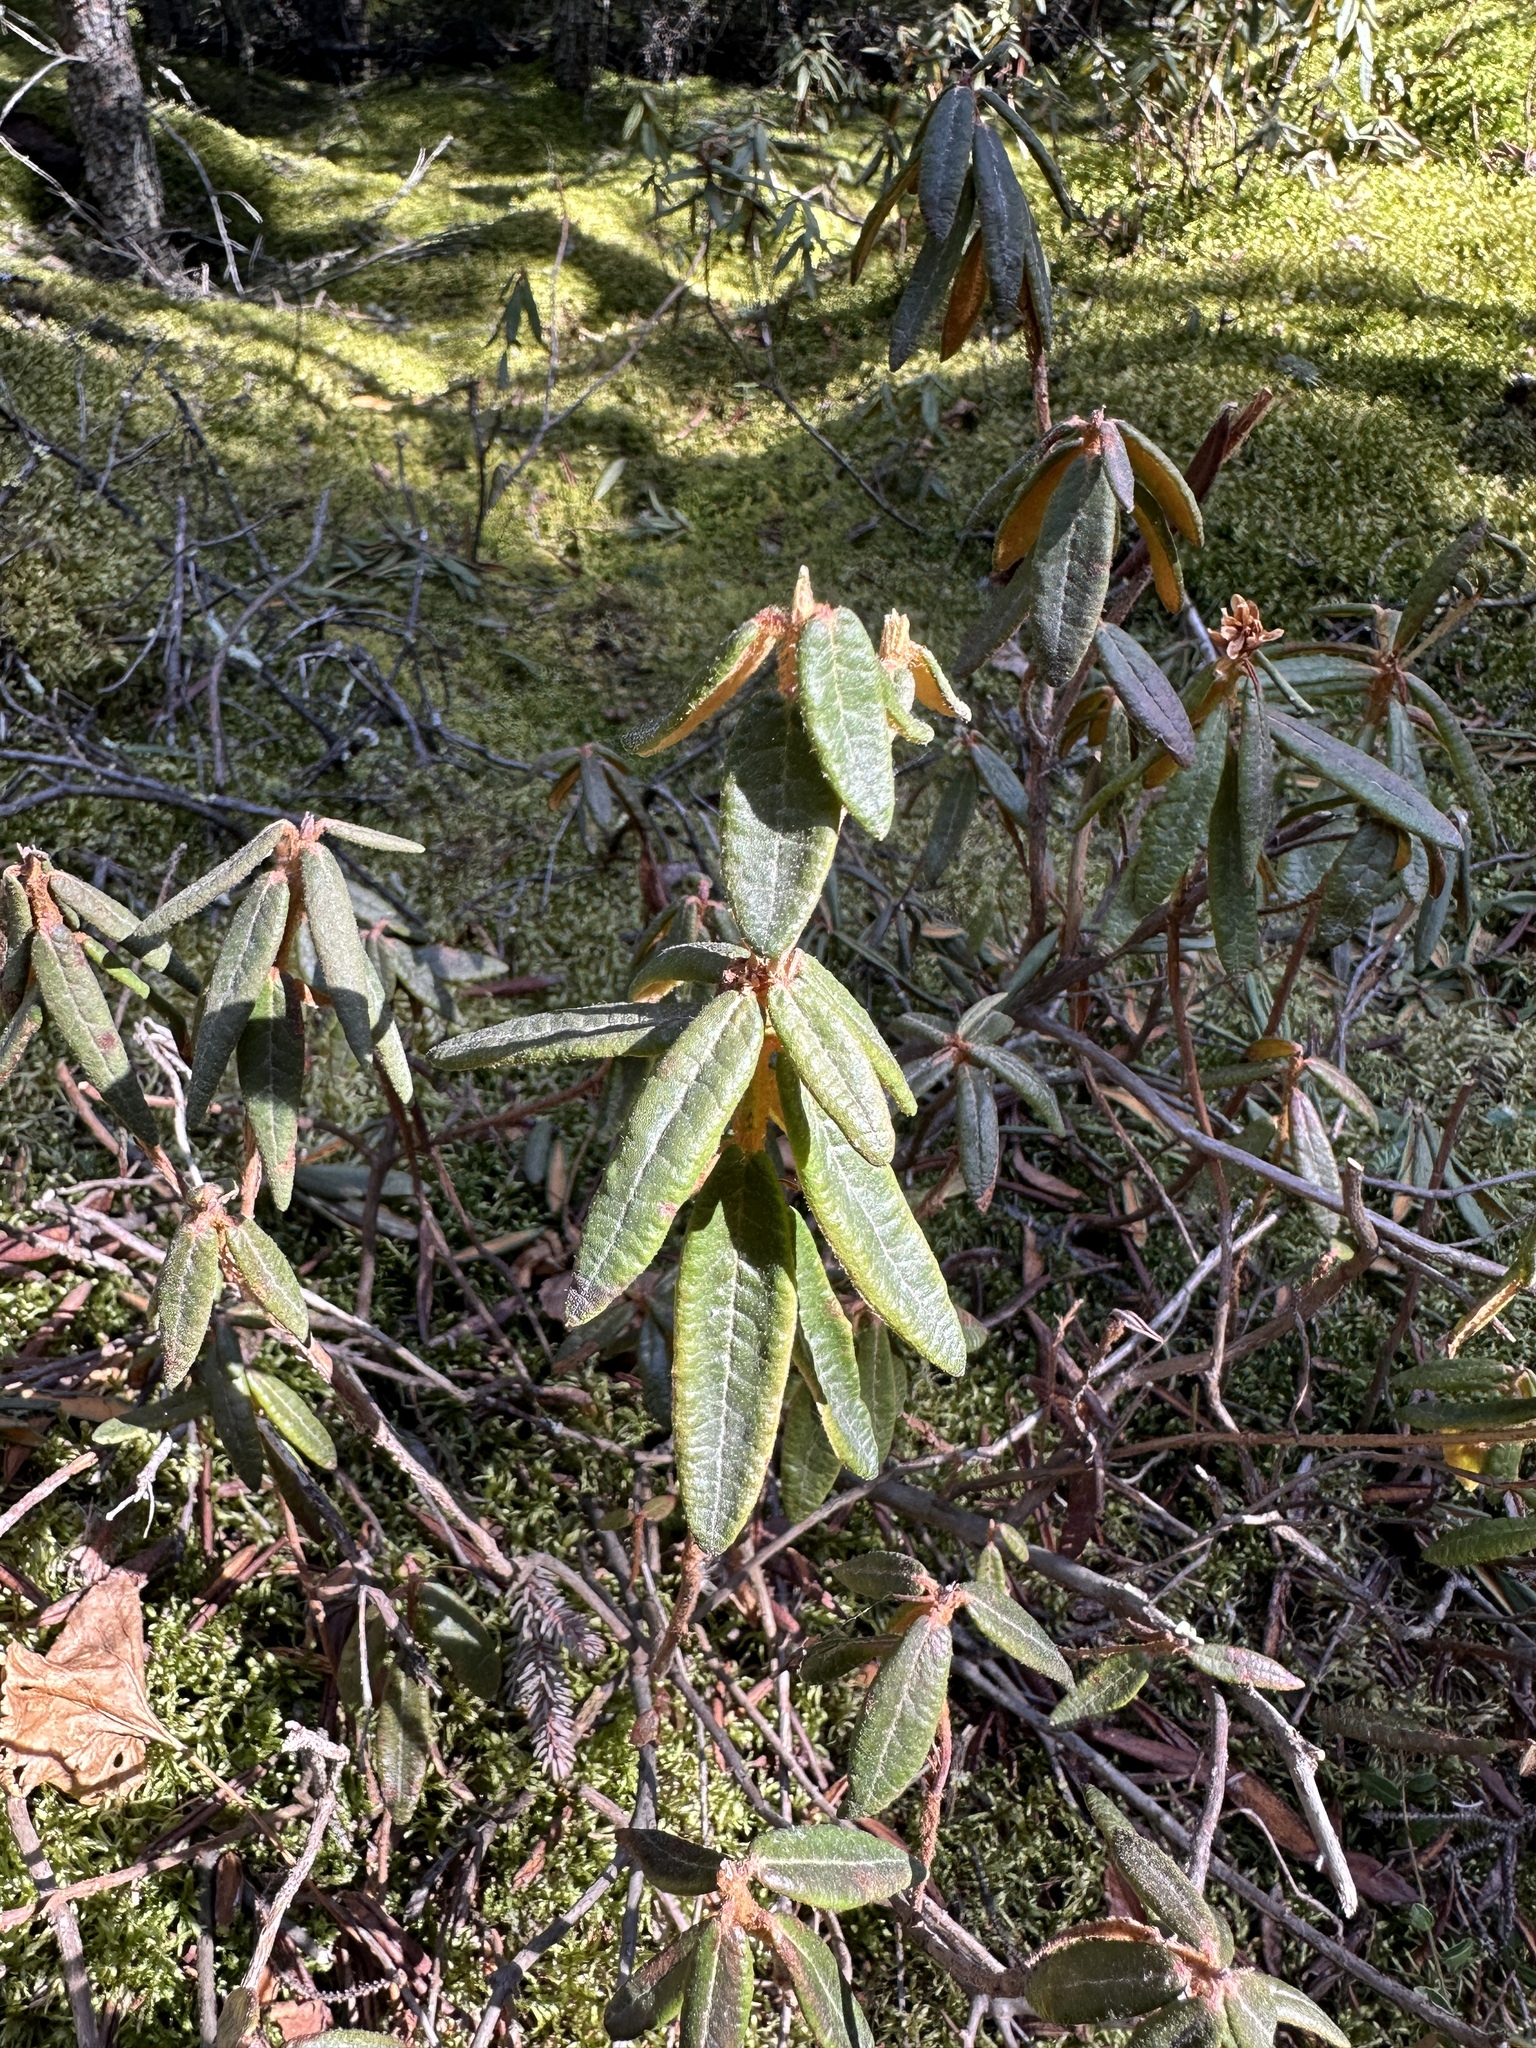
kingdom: Plantae
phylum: Tracheophyta
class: Magnoliopsida
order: Ericales
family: Ericaceae
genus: Rhododendron
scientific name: Rhododendron groenlandicum
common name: Bog labrador tea
